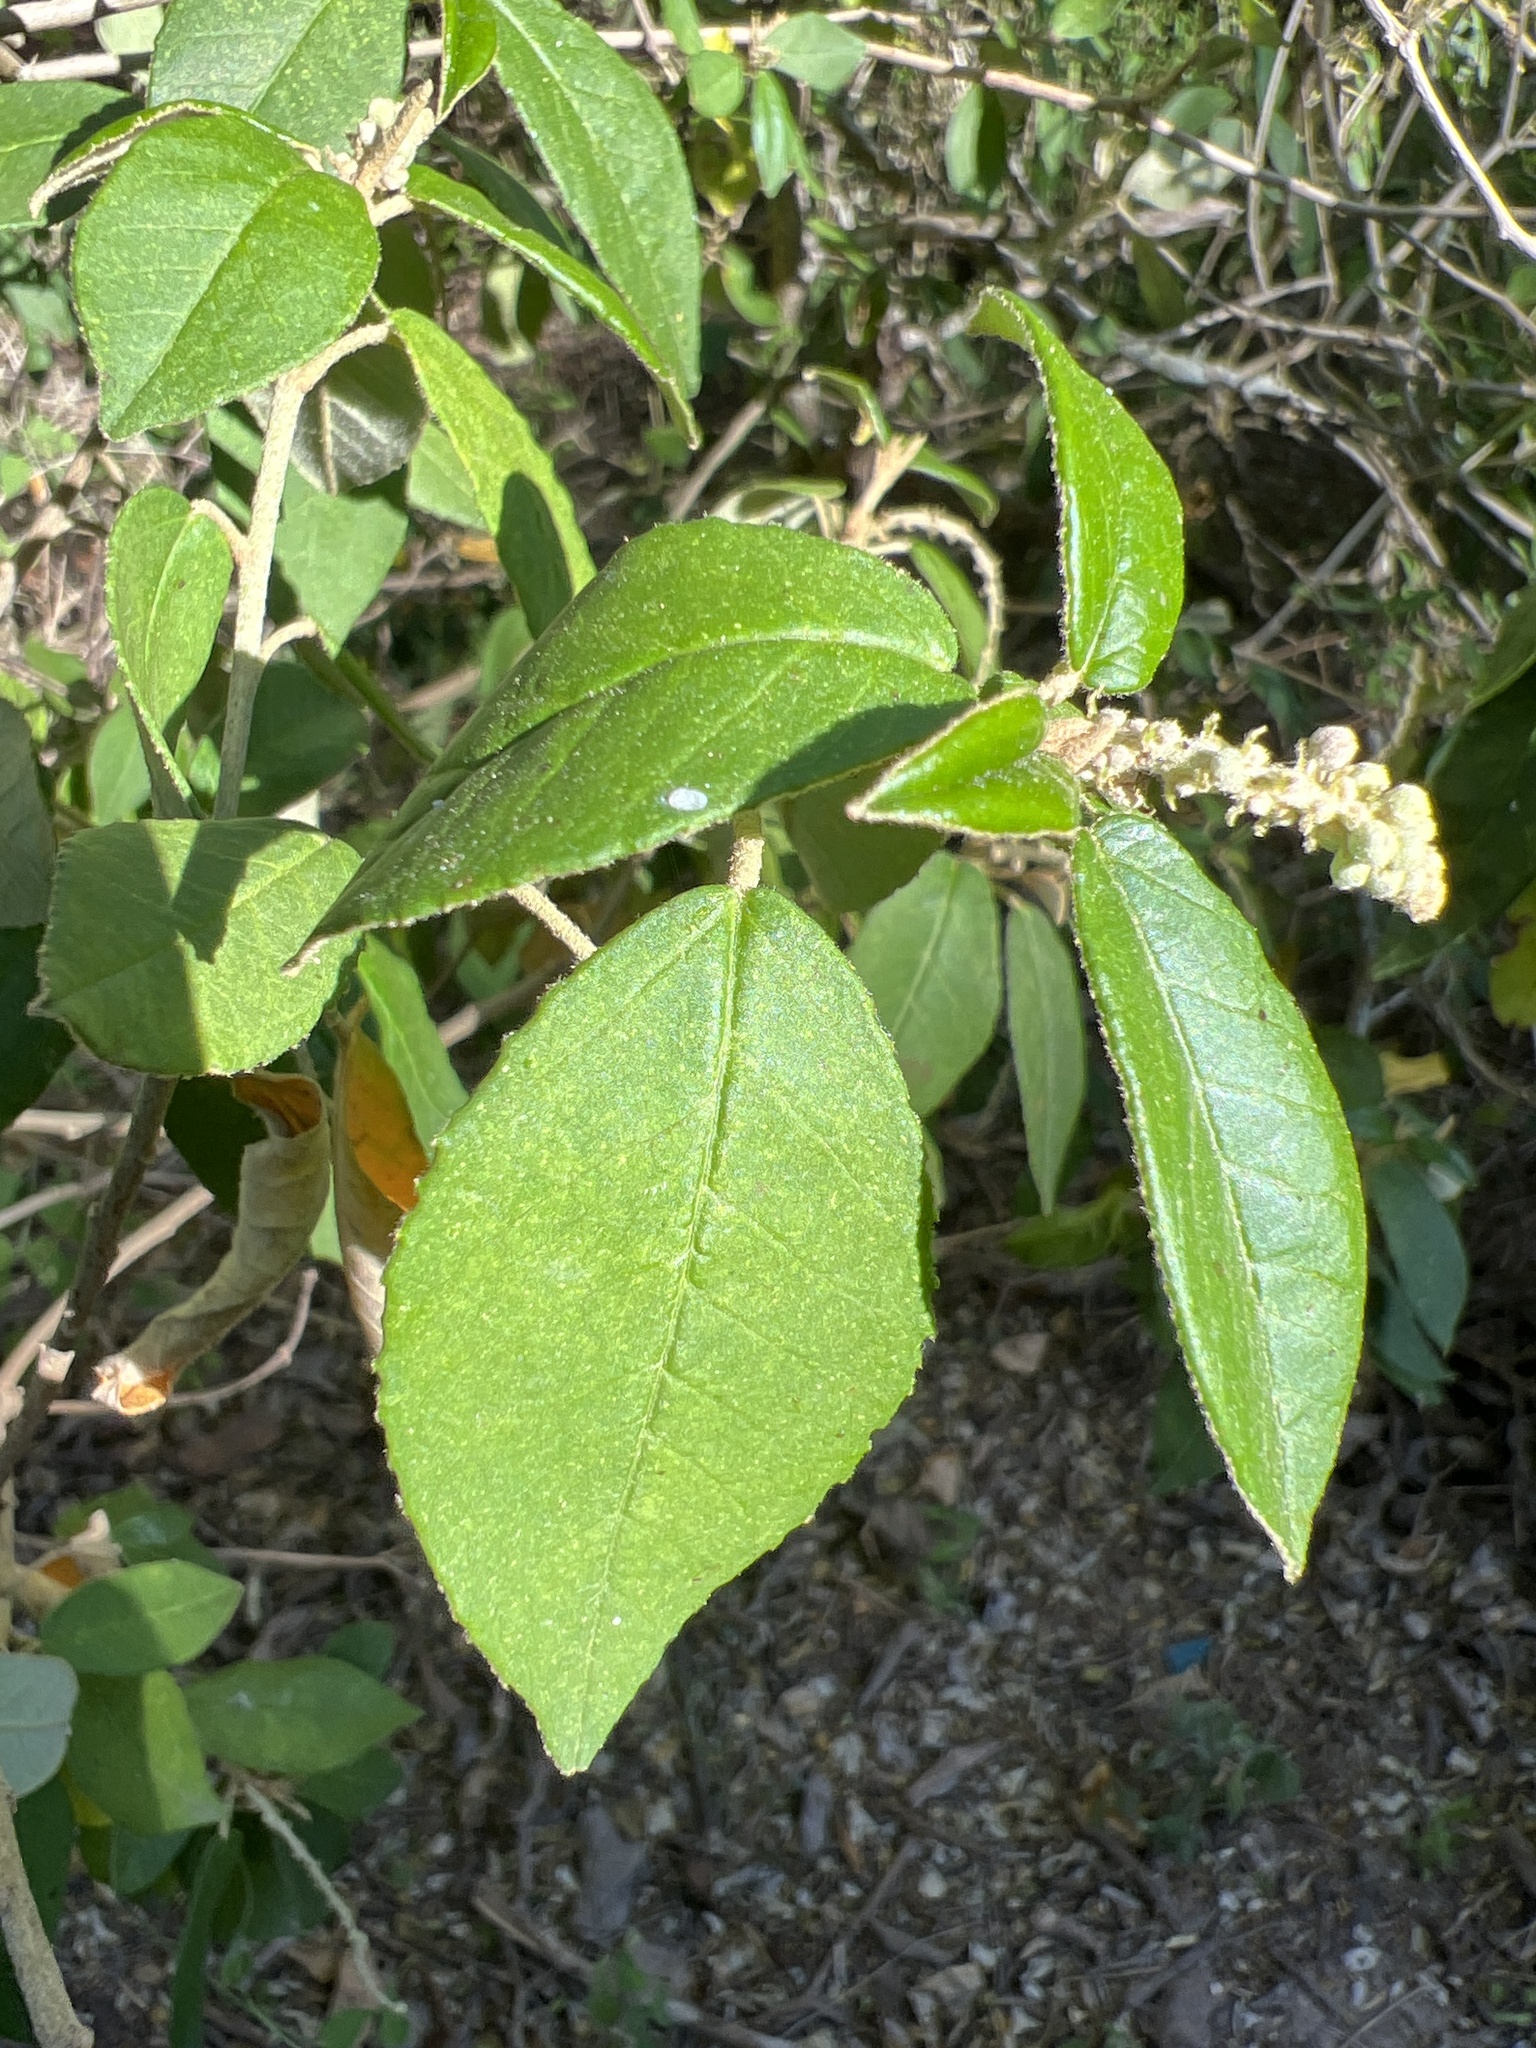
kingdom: Plantae
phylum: Tracheophyta
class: Magnoliopsida
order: Malpighiales
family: Euphorbiaceae
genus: Croton
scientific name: Croton cortesianus
